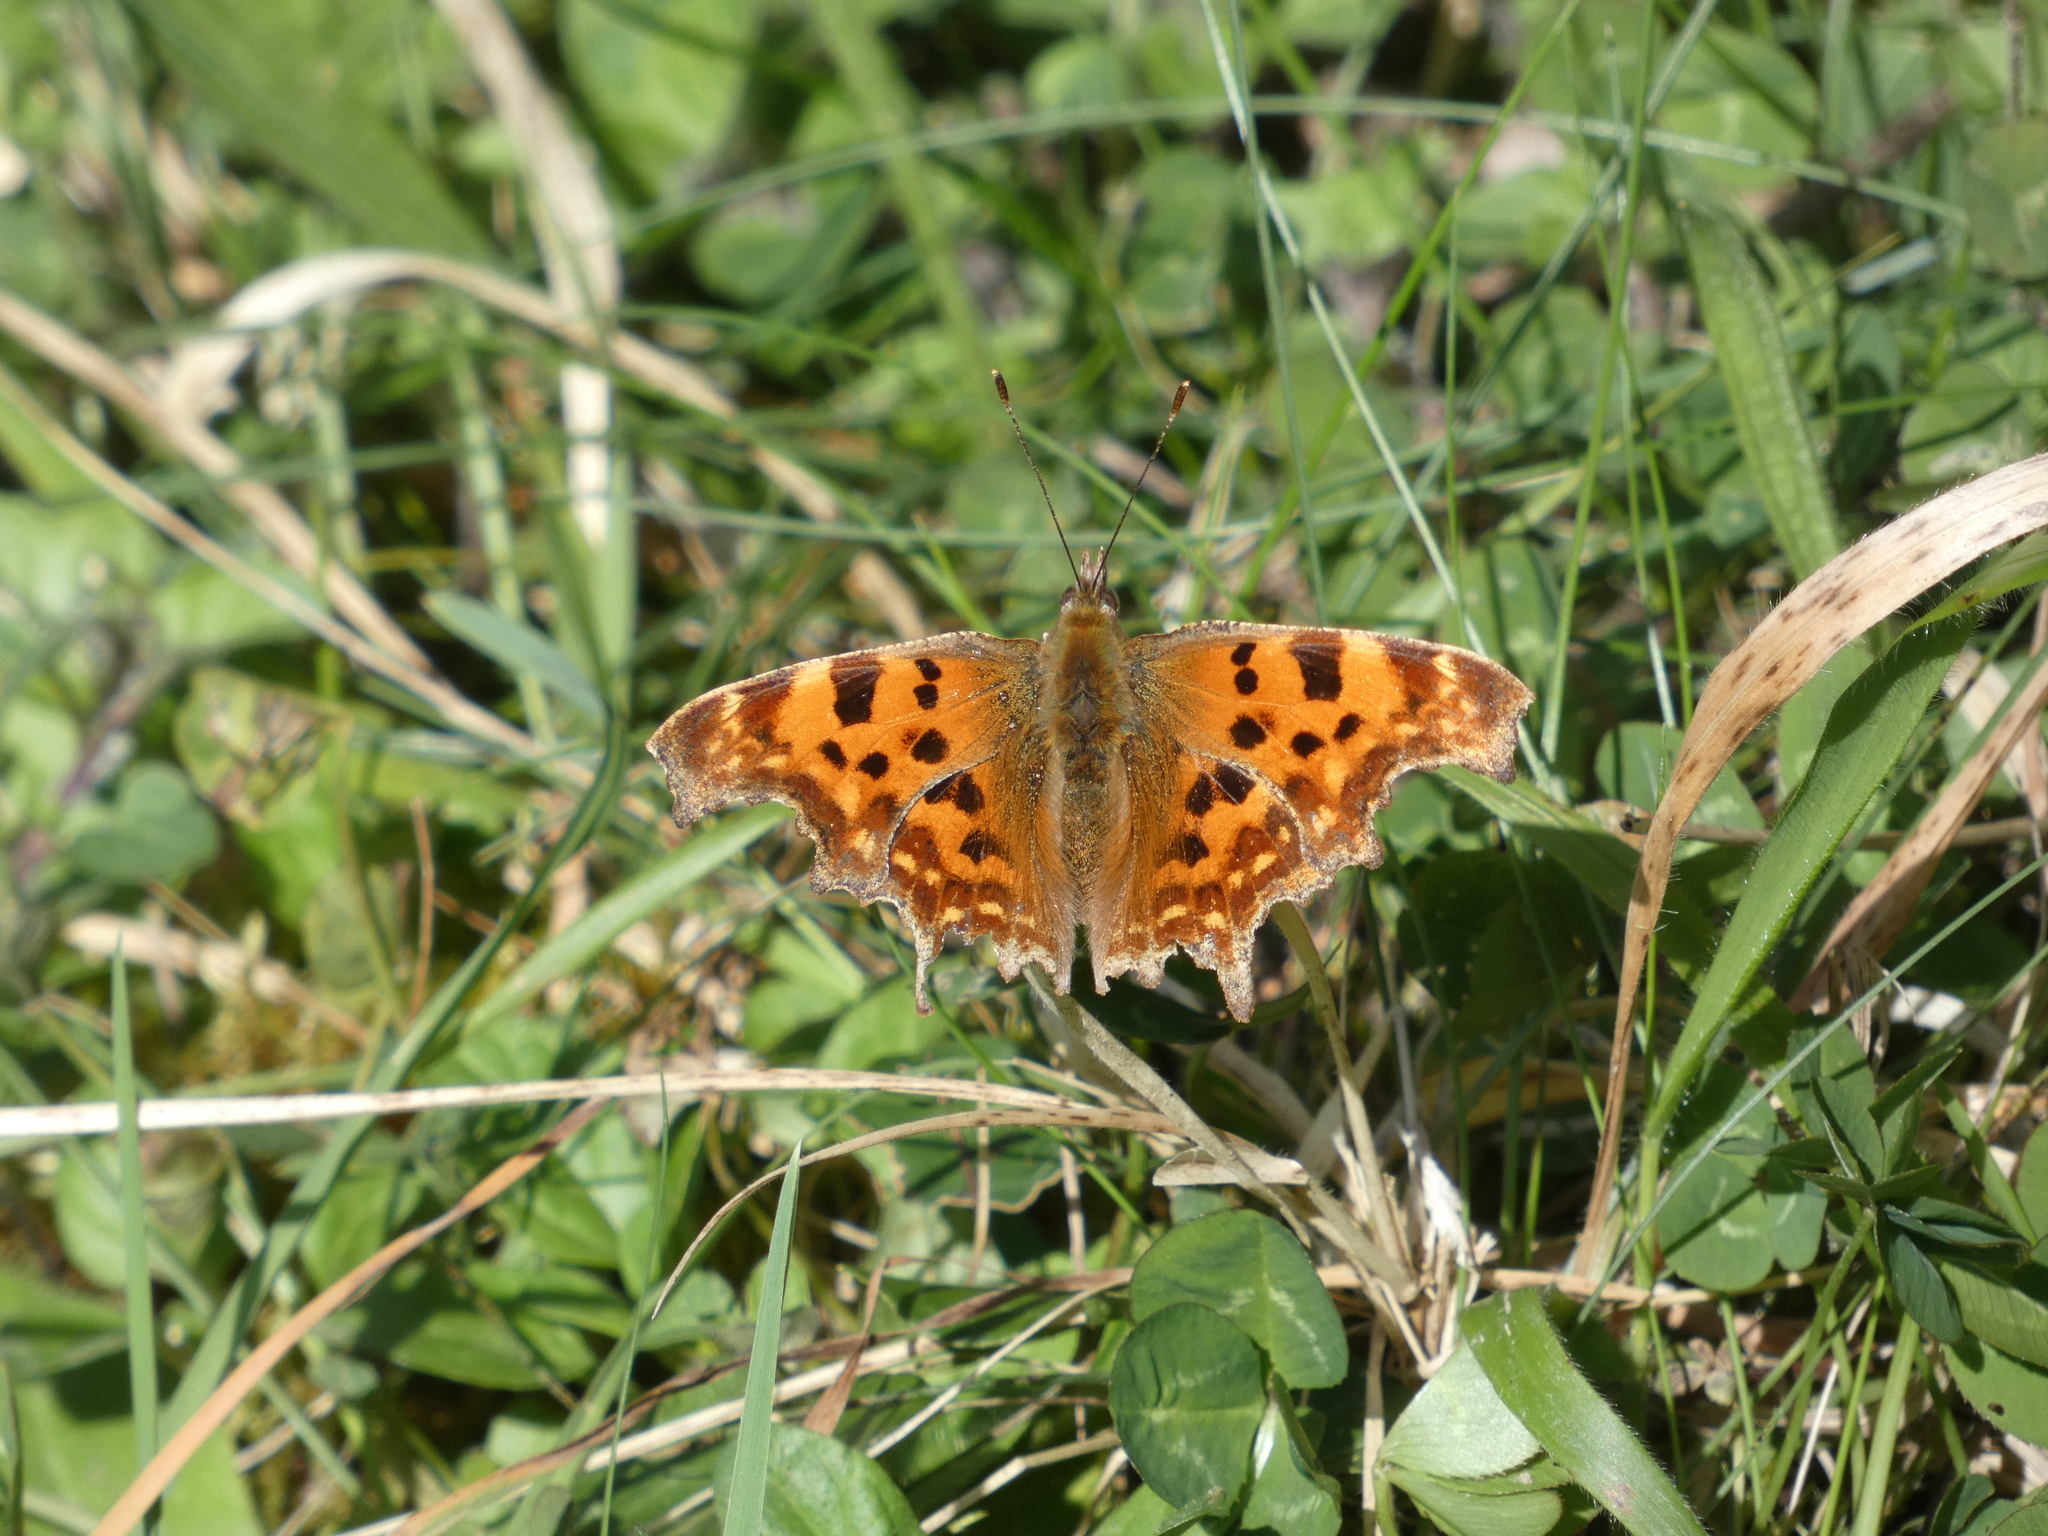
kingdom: Animalia
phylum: Arthropoda
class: Insecta
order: Lepidoptera
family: Nymphalidae
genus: Polygonia
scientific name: Polygonia c-album
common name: Comma
